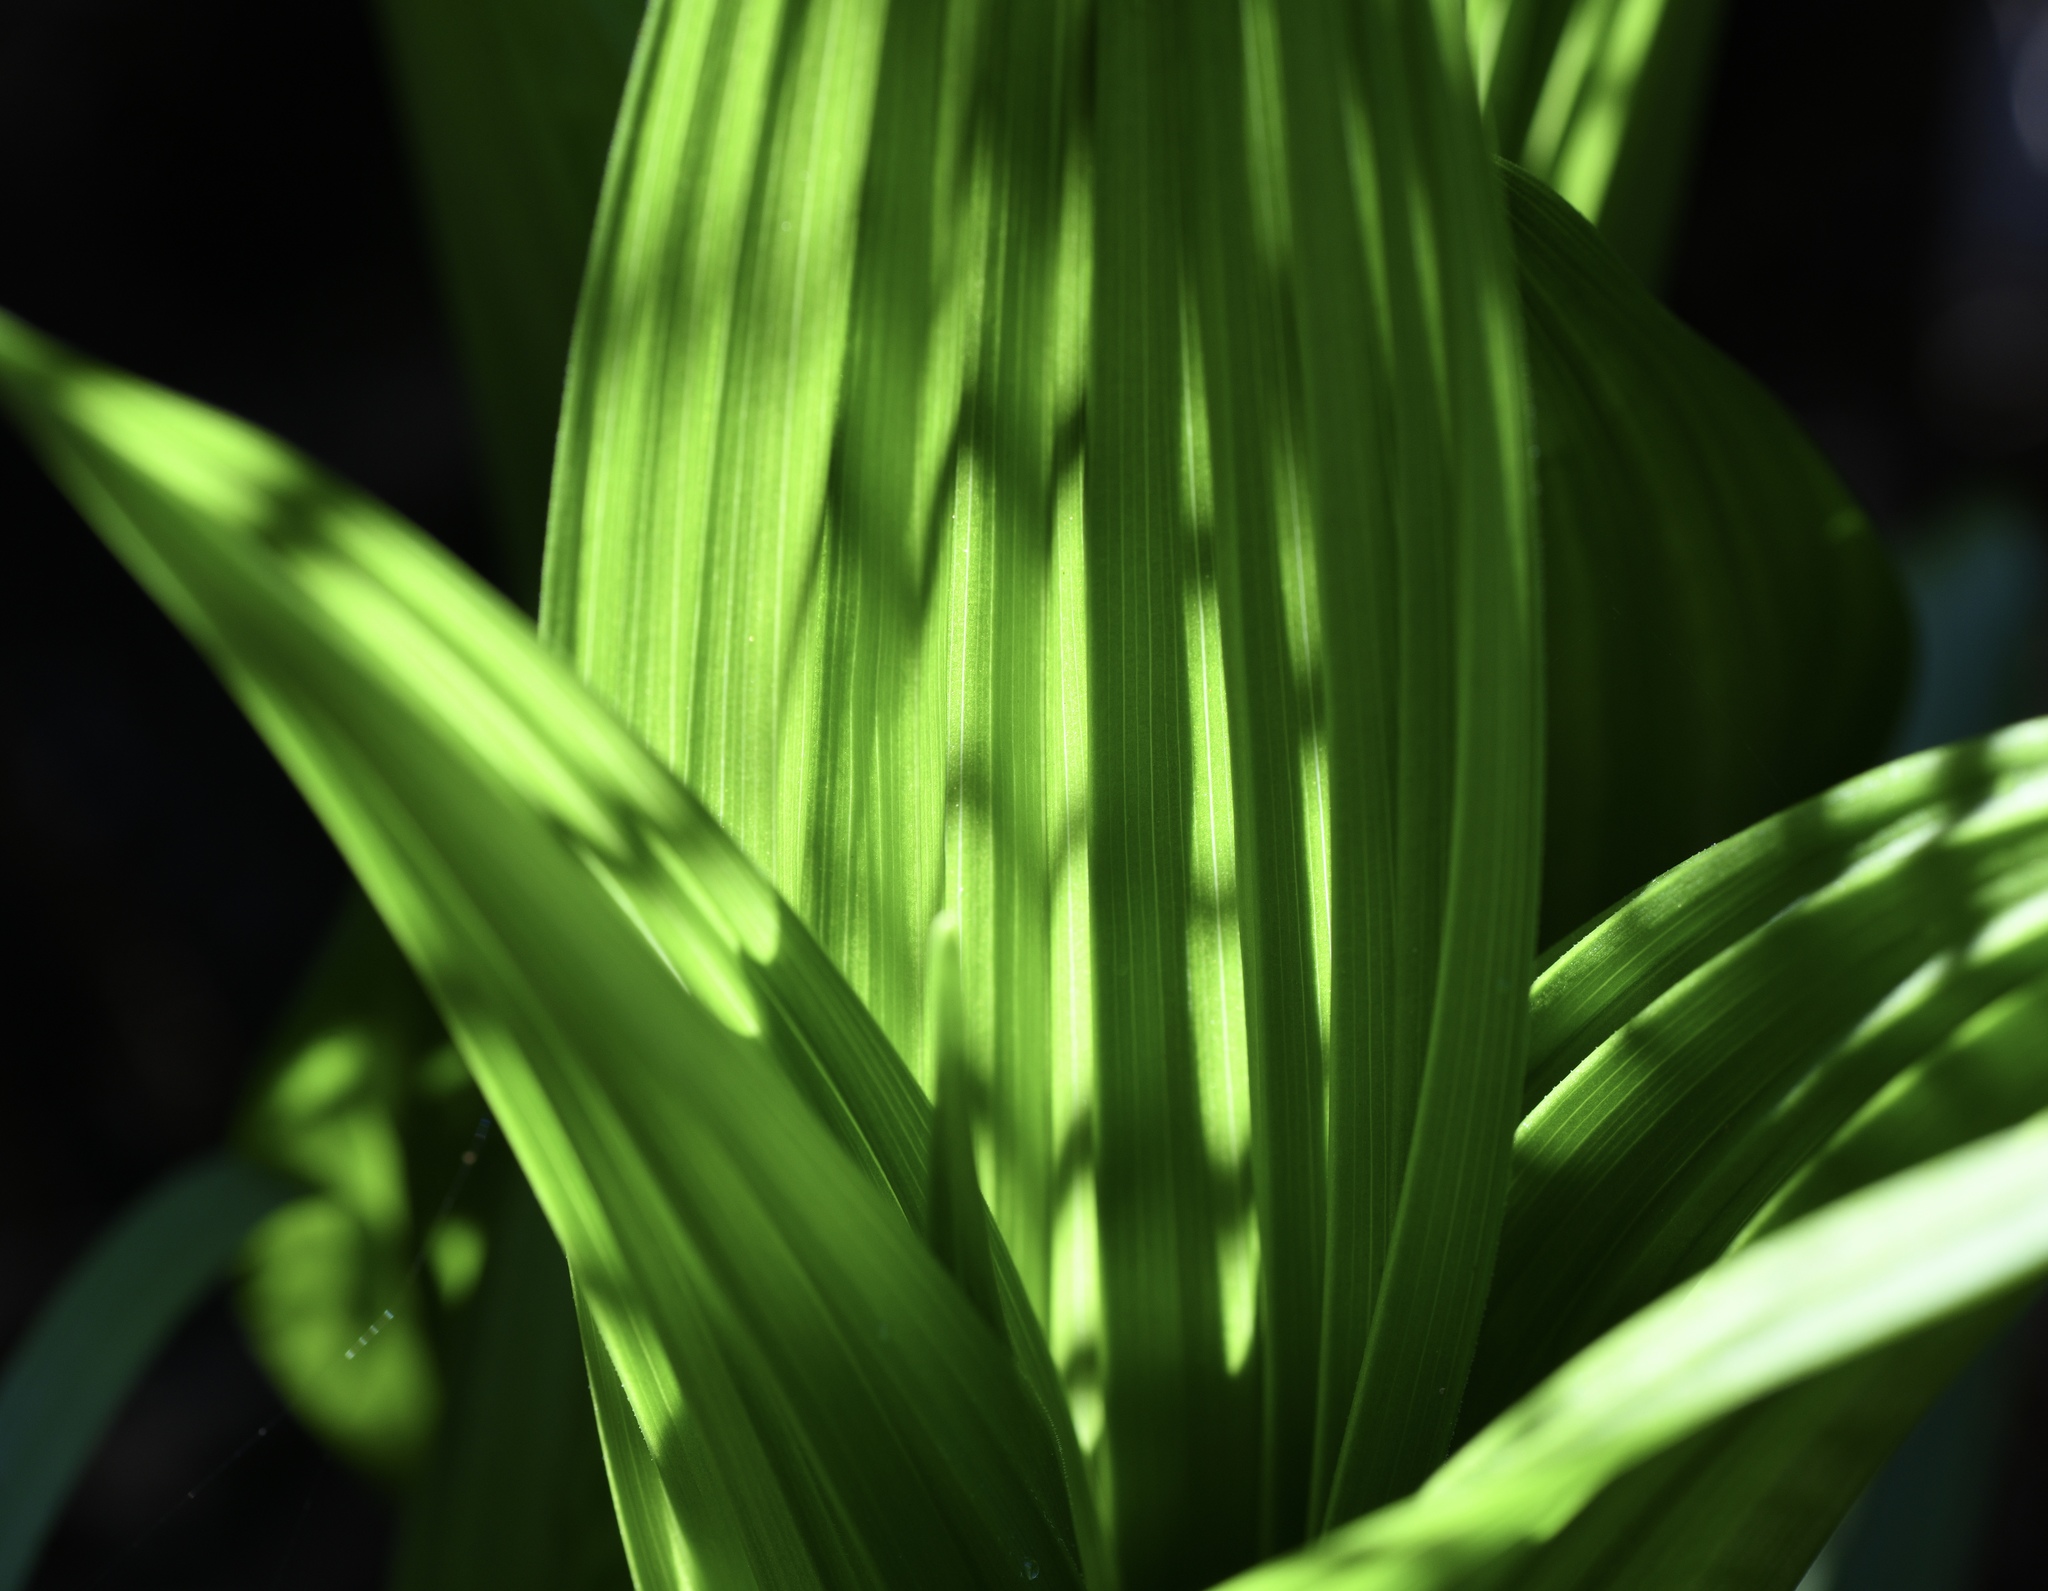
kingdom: Plantae
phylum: Tracheophyta
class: Liliopsida
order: Liliales
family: Melanthiaceae
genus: Veratrum
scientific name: Veratrum fimbriatum
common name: Fringe false hellobore
